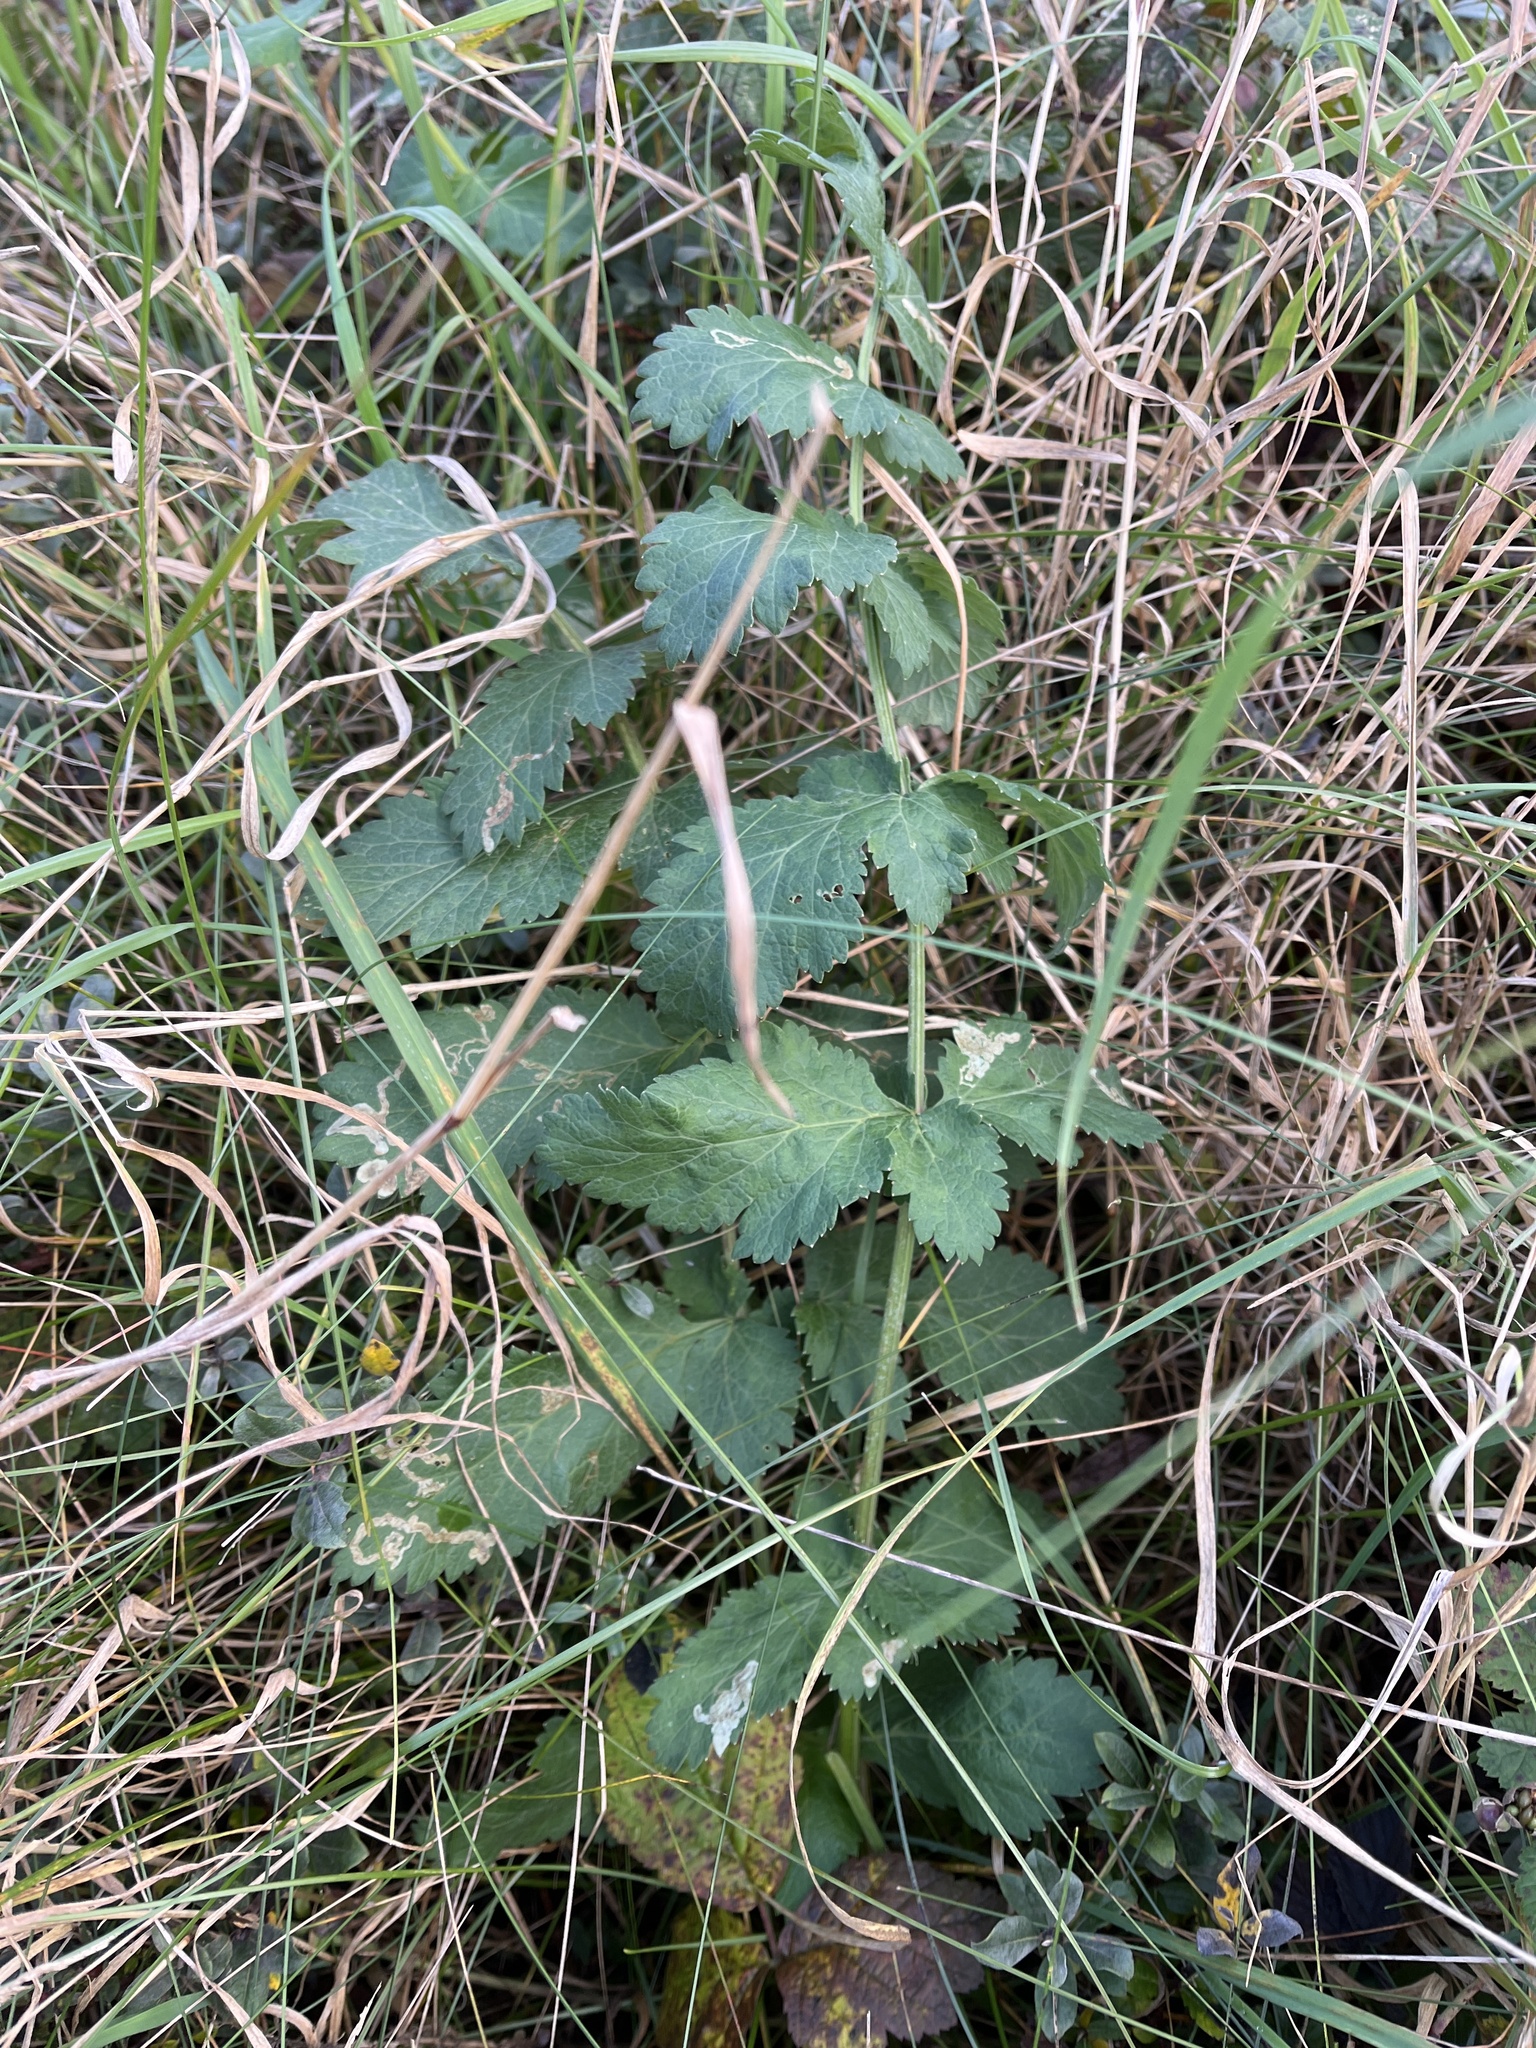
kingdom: Plantae
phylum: Tracheophyta
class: Magnoliopsida
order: Apiales
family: Apiaceae
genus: Pastinaca
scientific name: Pastinaca sativa
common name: Wild parsnip
